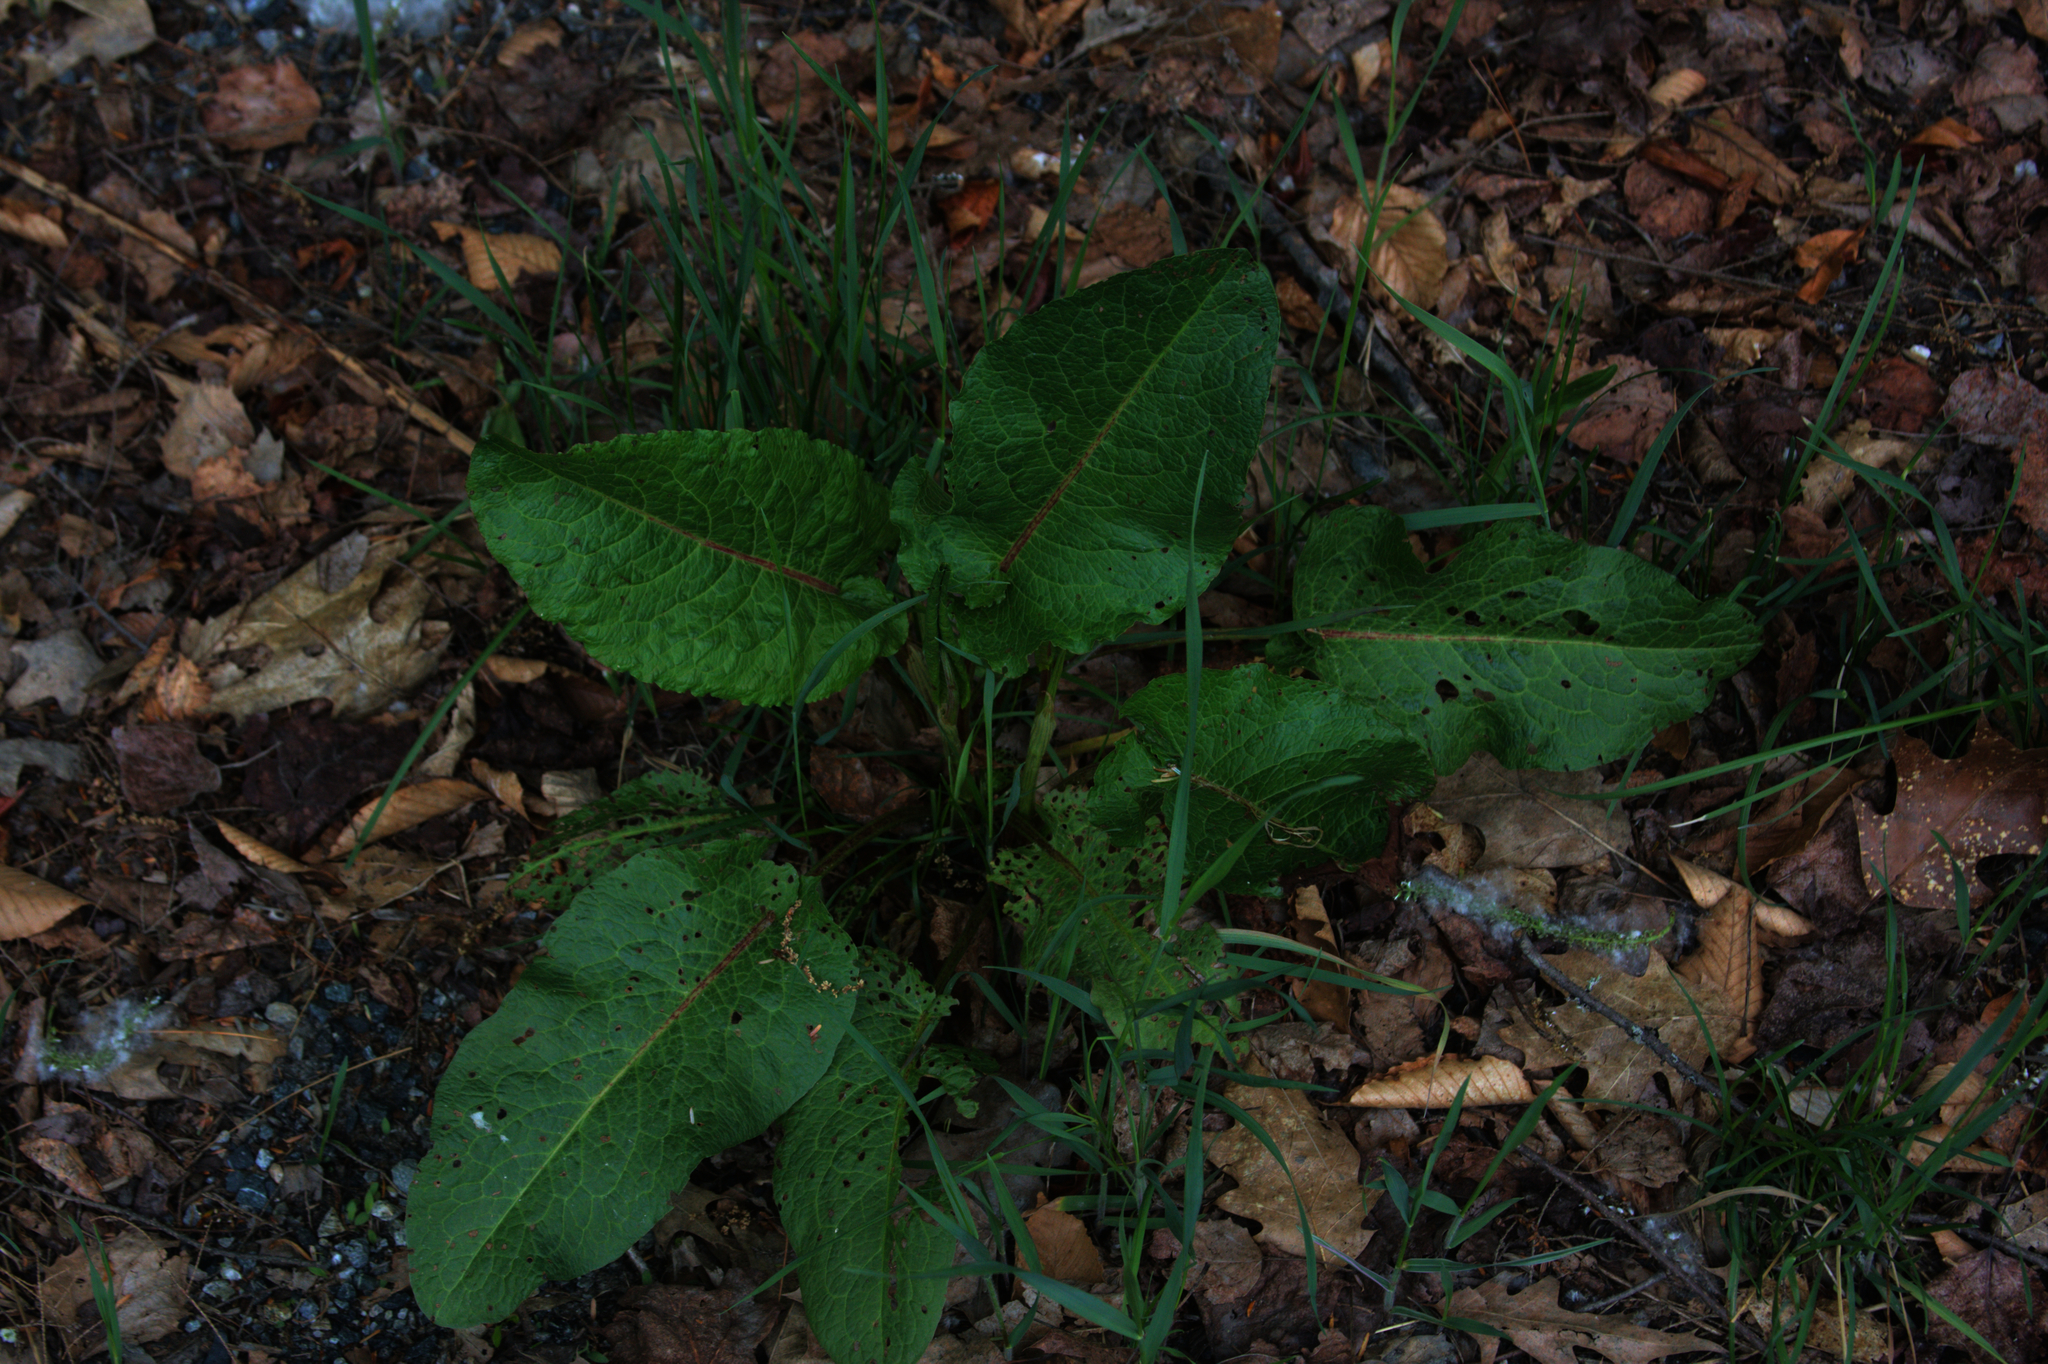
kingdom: Plantae
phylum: Tracheophyta
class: Magnoliopsida
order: Caryophyllales
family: Polygonaceae
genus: Rumex
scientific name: Rumex obtusifolius
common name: Bitter dock
